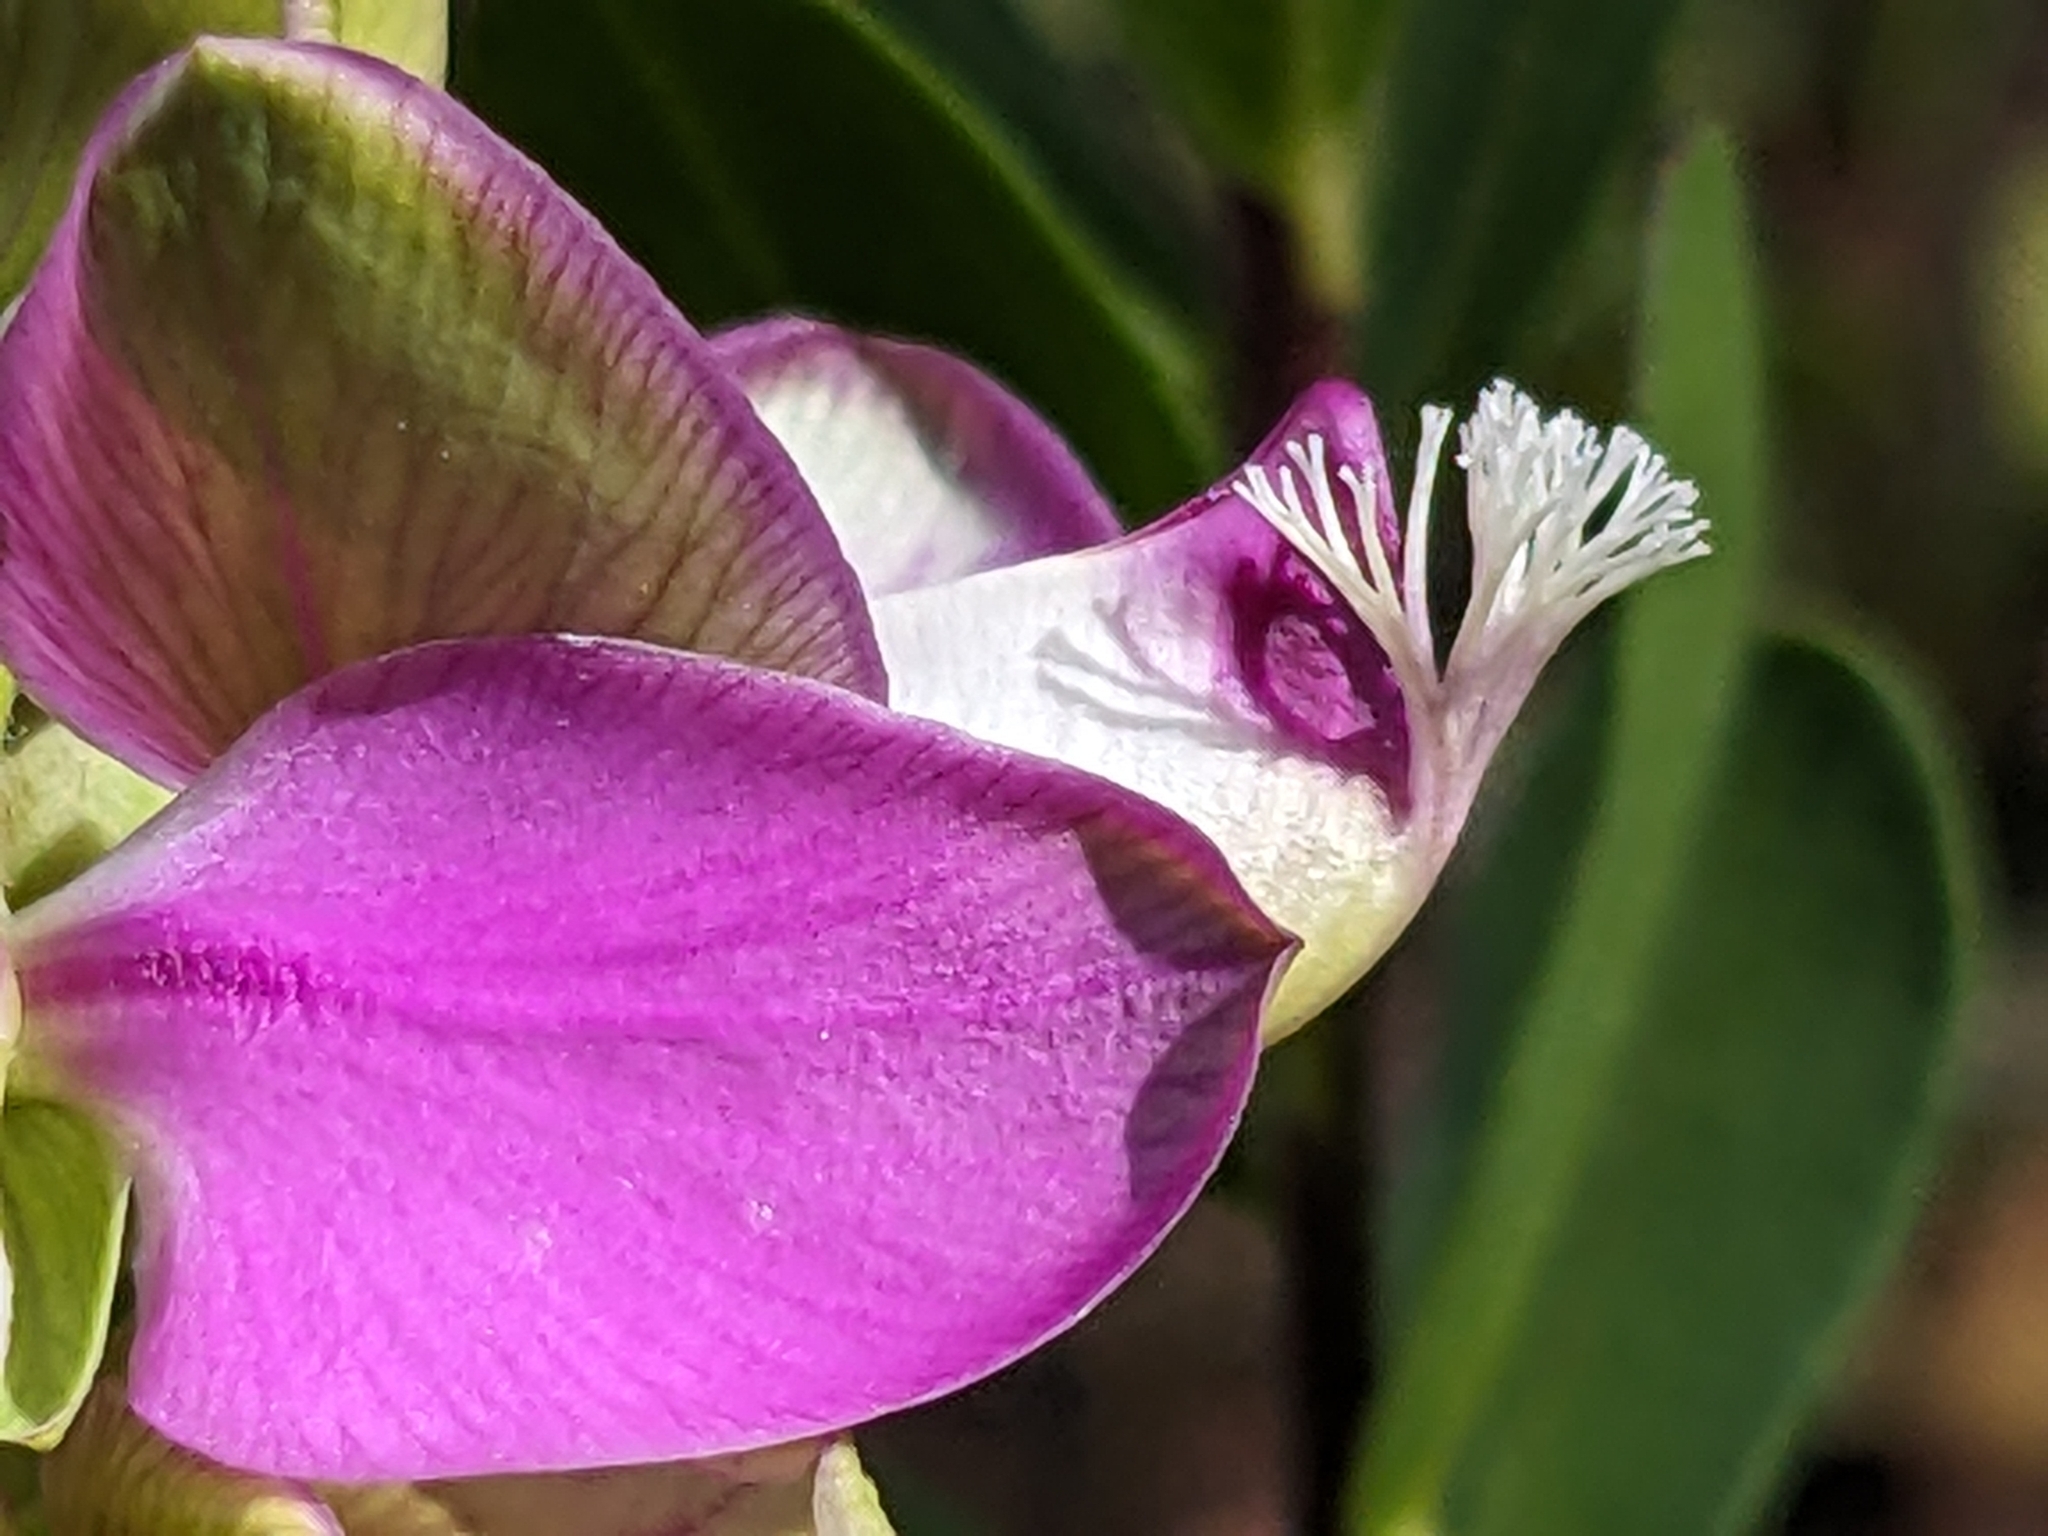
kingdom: Plantae
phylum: Tracheophyta
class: Magnoliopsida
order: Fabales
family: Polygalaceae
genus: Polygala
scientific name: Polygala myrtifolia
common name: Myrtle-leaf milkwort
